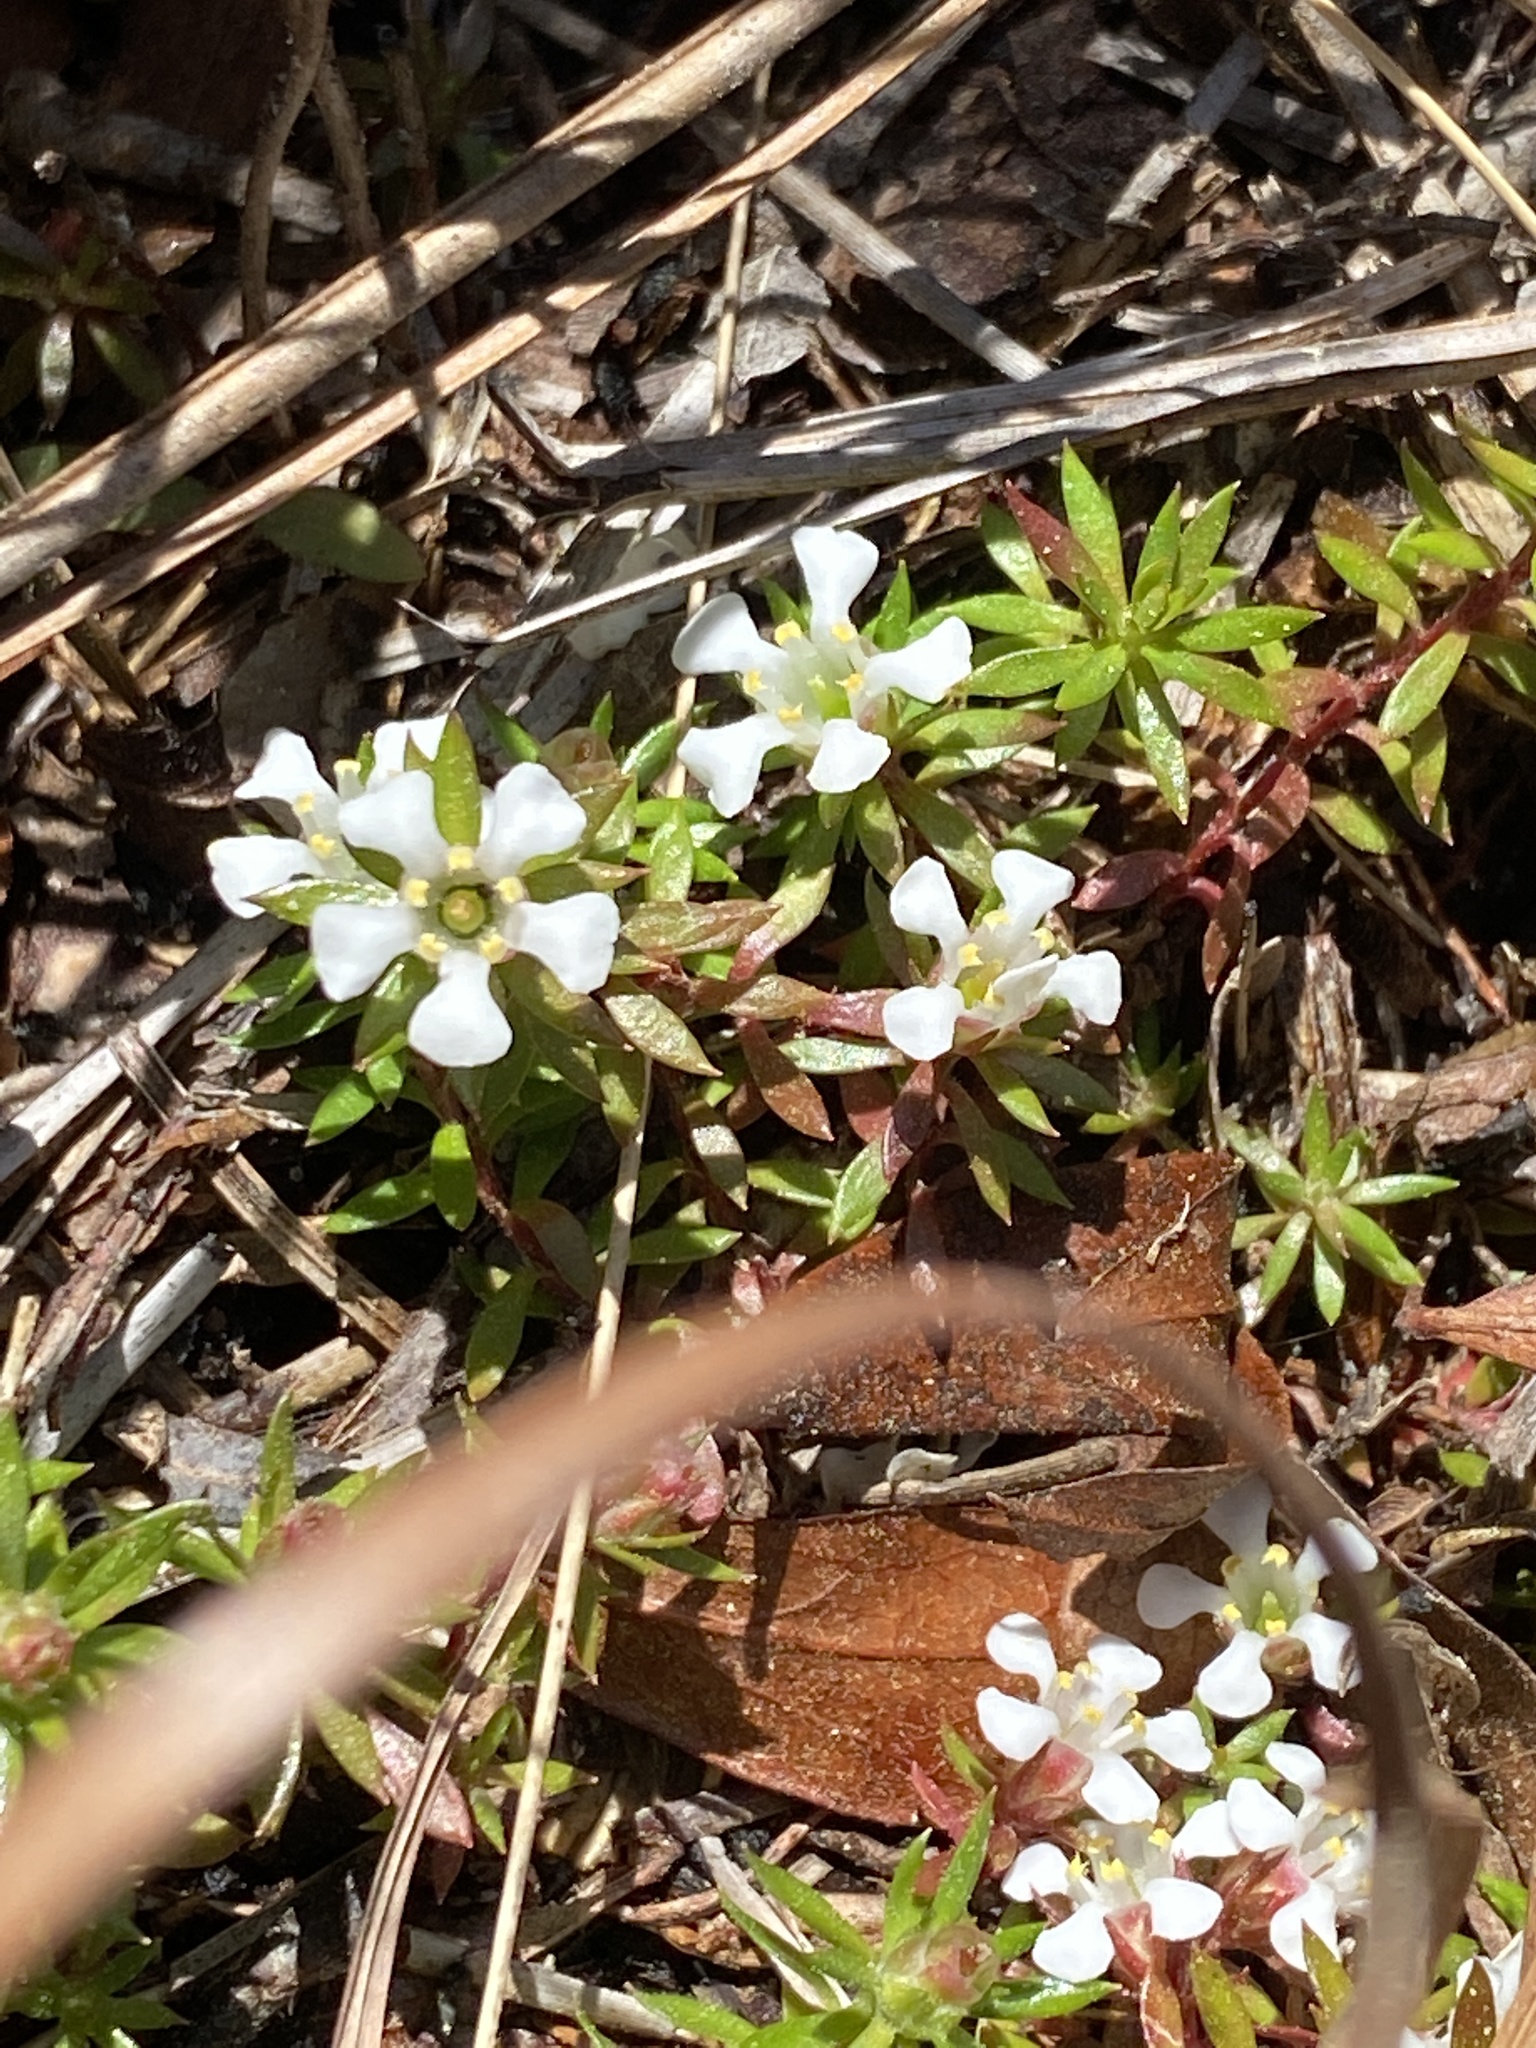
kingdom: Plantae
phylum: Tracheophyta
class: Magnoliopsida
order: Ericales
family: Diapensiaceae
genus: Pyxidanthera
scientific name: Pyxidanthera barbulata
